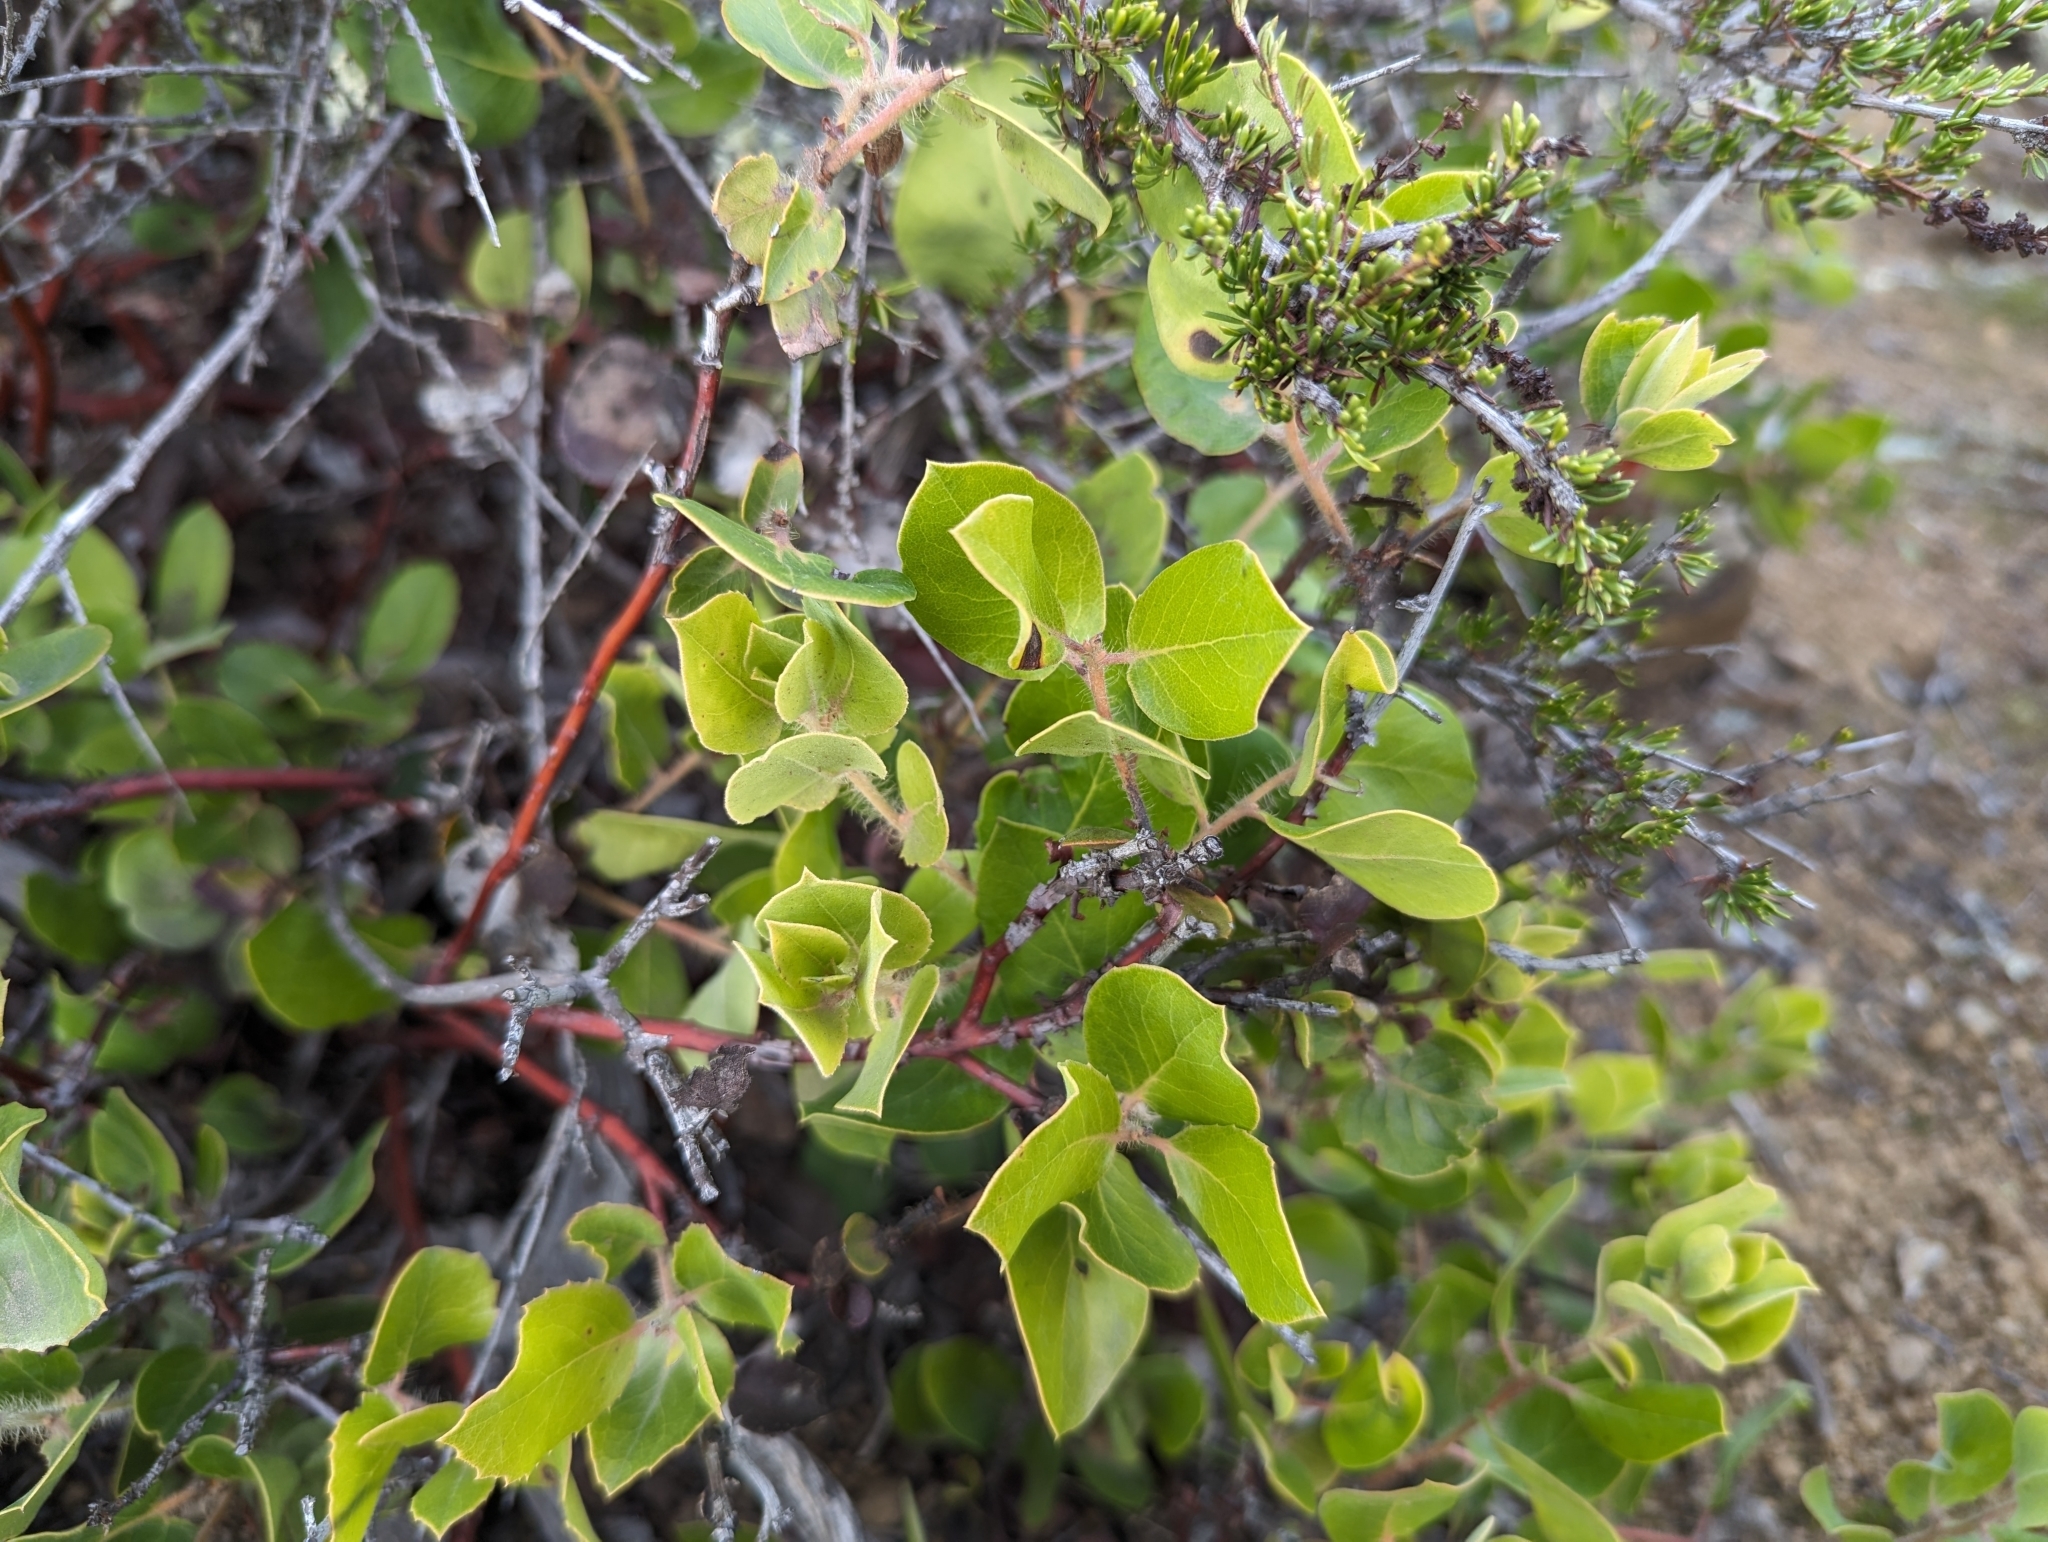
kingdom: Plantae
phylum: Tracheophyta
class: Magnoliopsida
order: Ericales
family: Ericaceae
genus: Arctostaphylos
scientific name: Arctostaphylos crustacea
